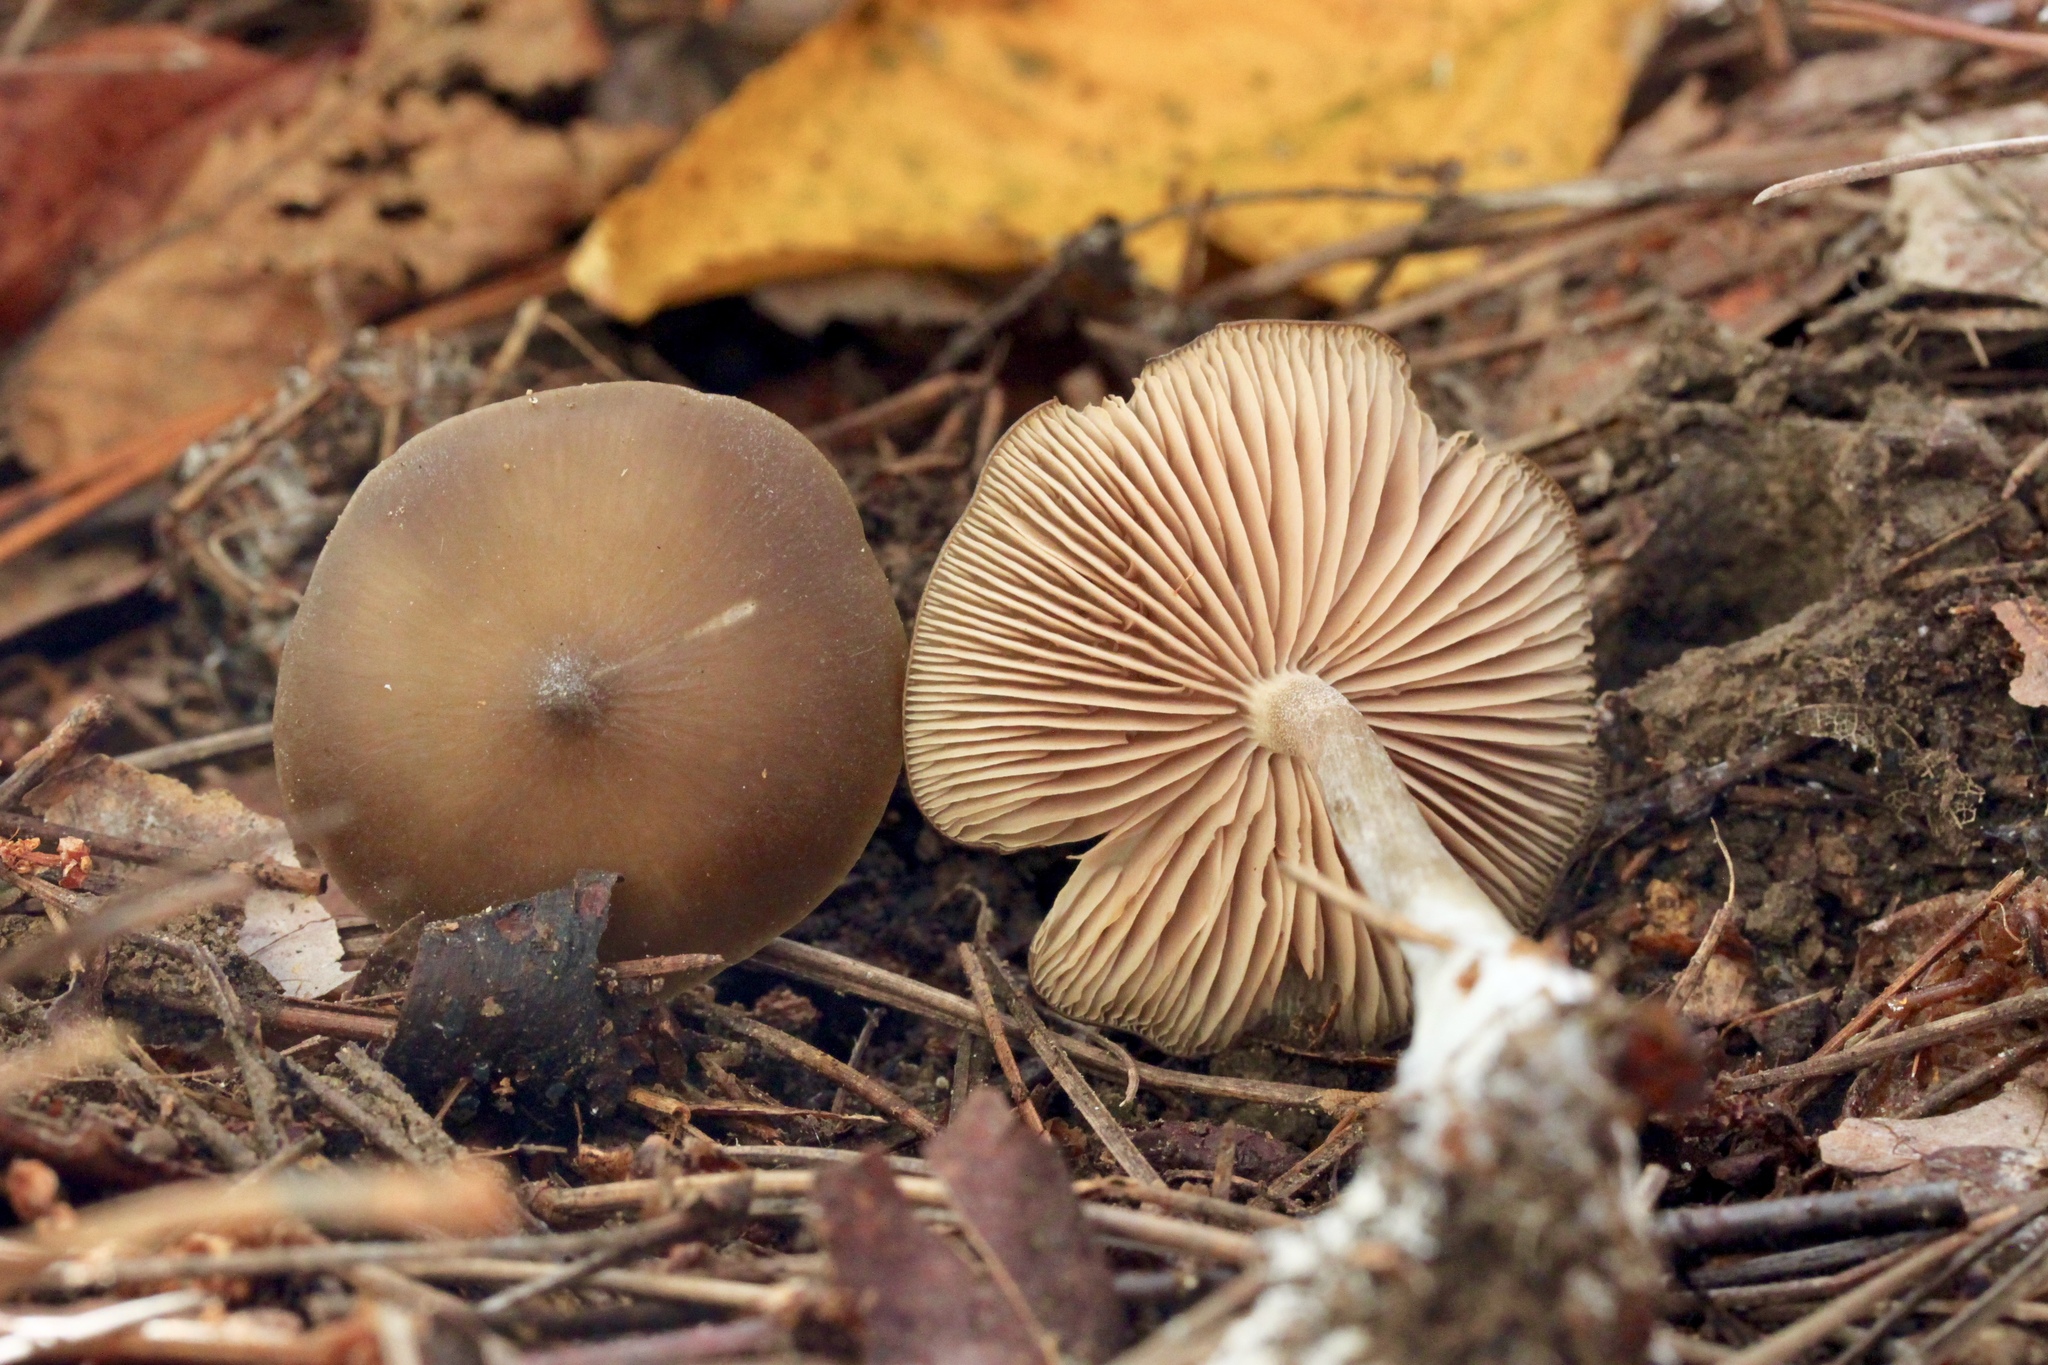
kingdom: Fungi
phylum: Basidiomycota
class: Agaricomycetes
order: Agaricales
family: Entolomataceae
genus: Entoloma
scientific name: Entoloma psammophilohebes
